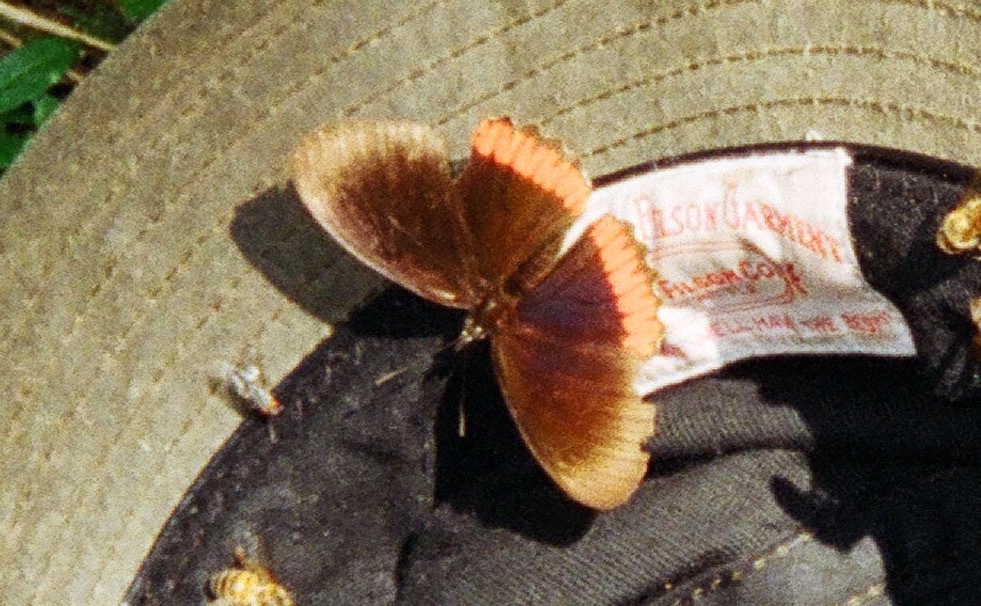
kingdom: Animalia
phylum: Arthropoda
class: Insecta
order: Lepidoptera
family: Sesiidae
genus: Sesia
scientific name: Sesia Biblis hyperia
